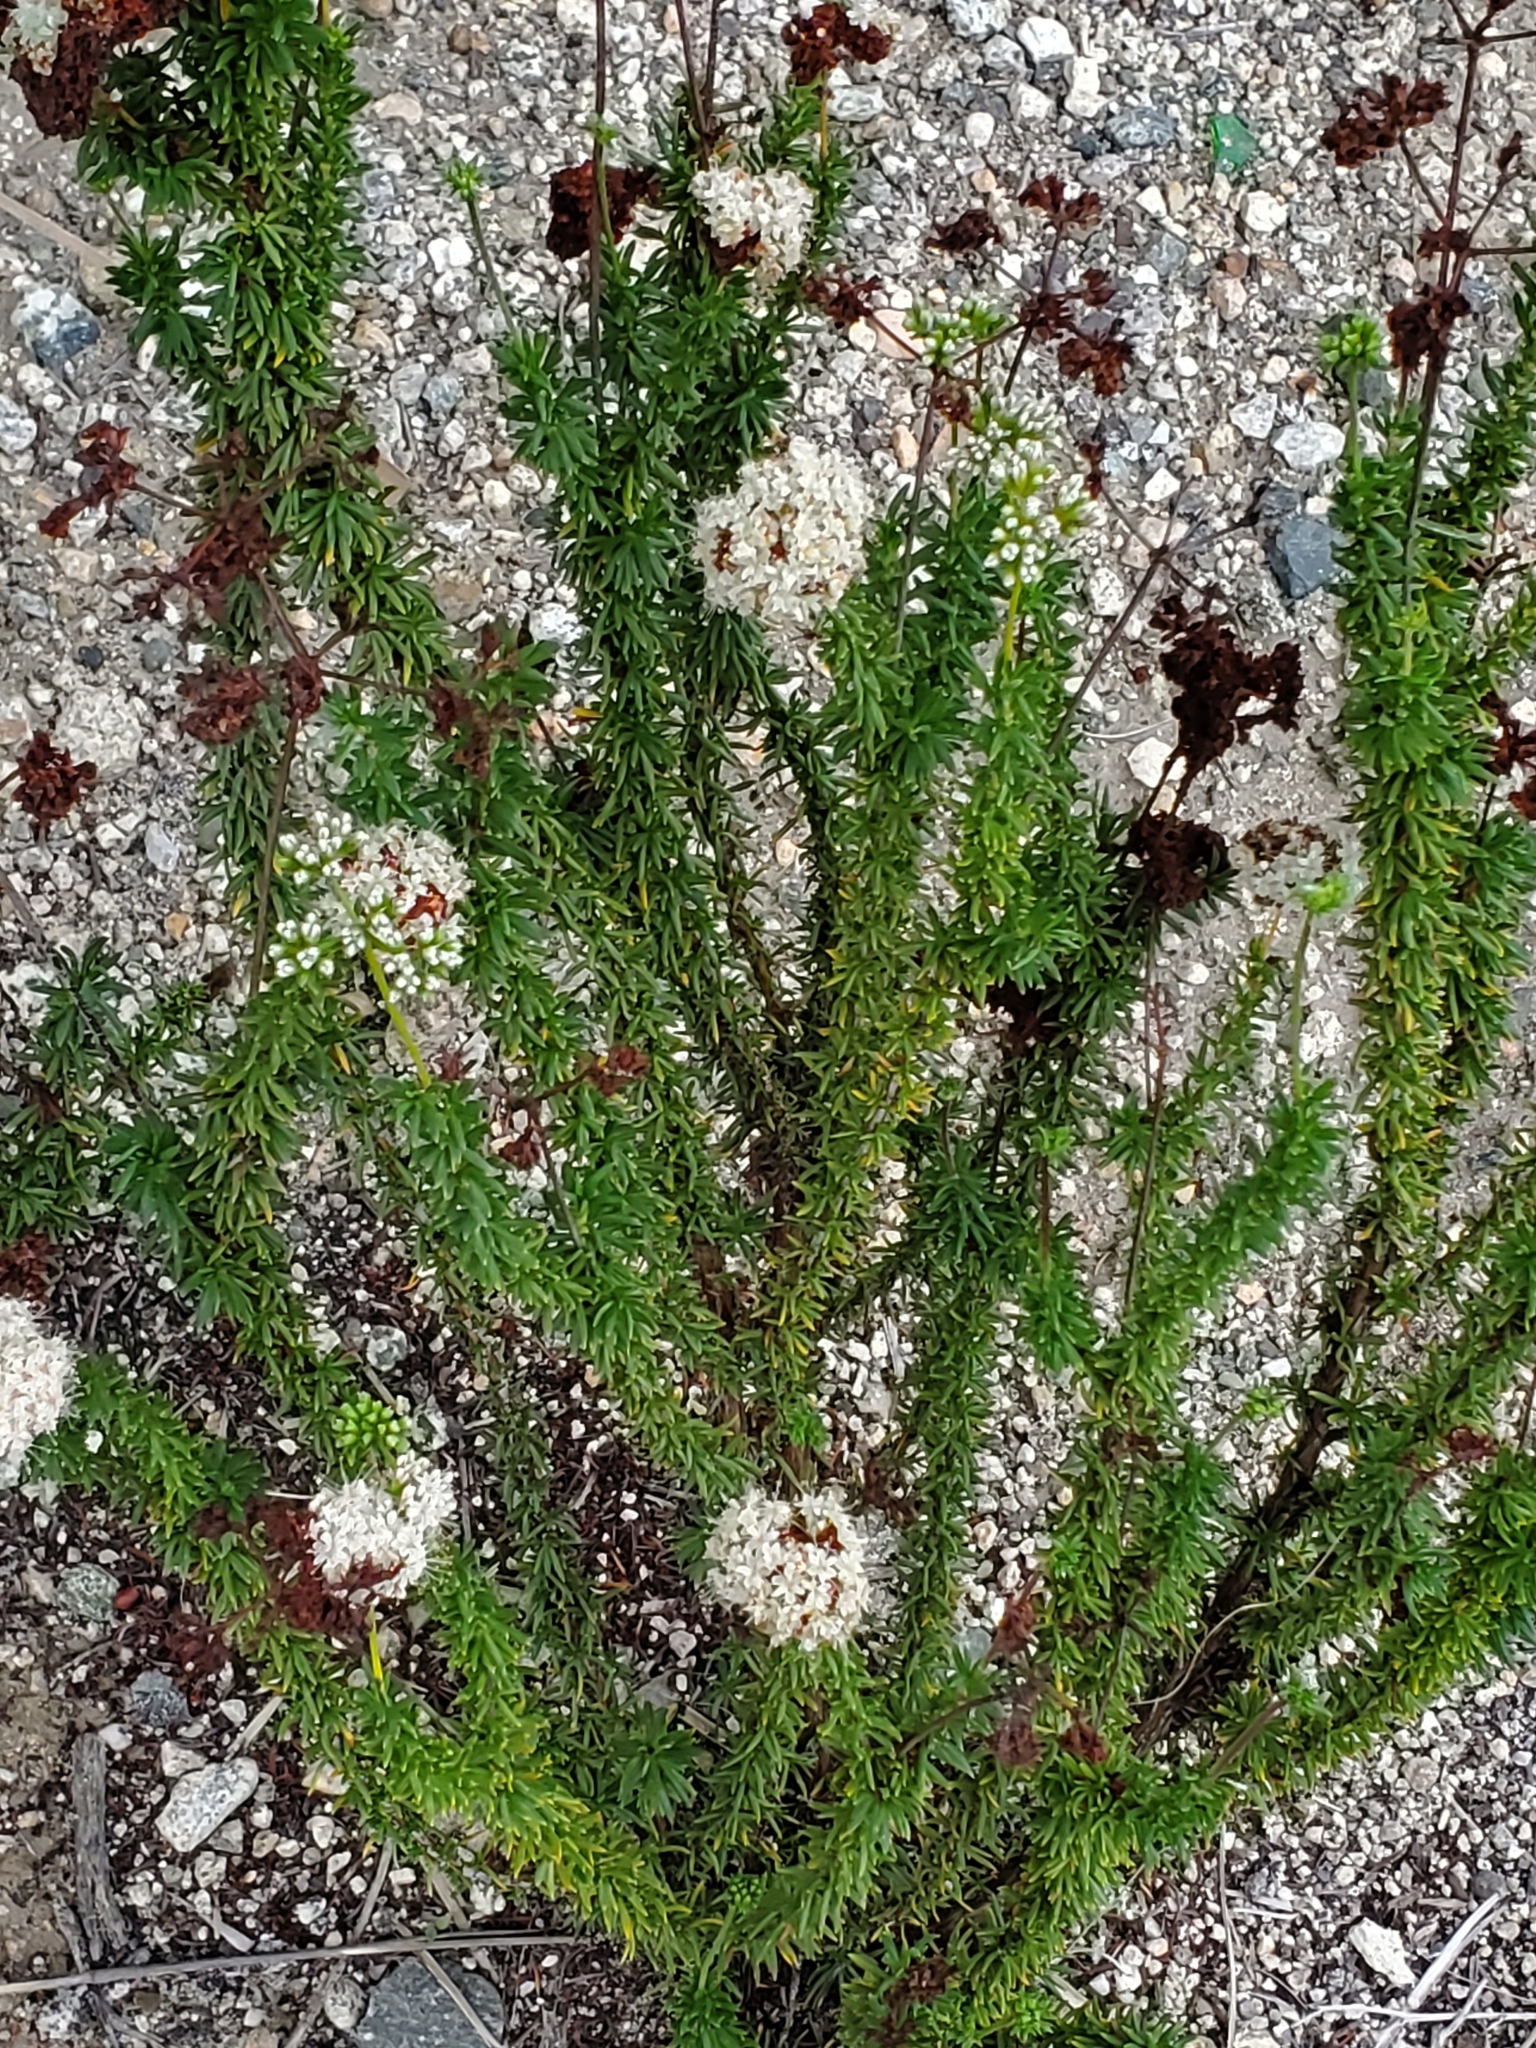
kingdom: Plantae
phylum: Tracheophyta
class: Magnoliopsida
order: Caryophyllales
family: Polygonaceae
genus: Eriogonum
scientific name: Eriogonum fasciculatum
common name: California wild buckwheat
